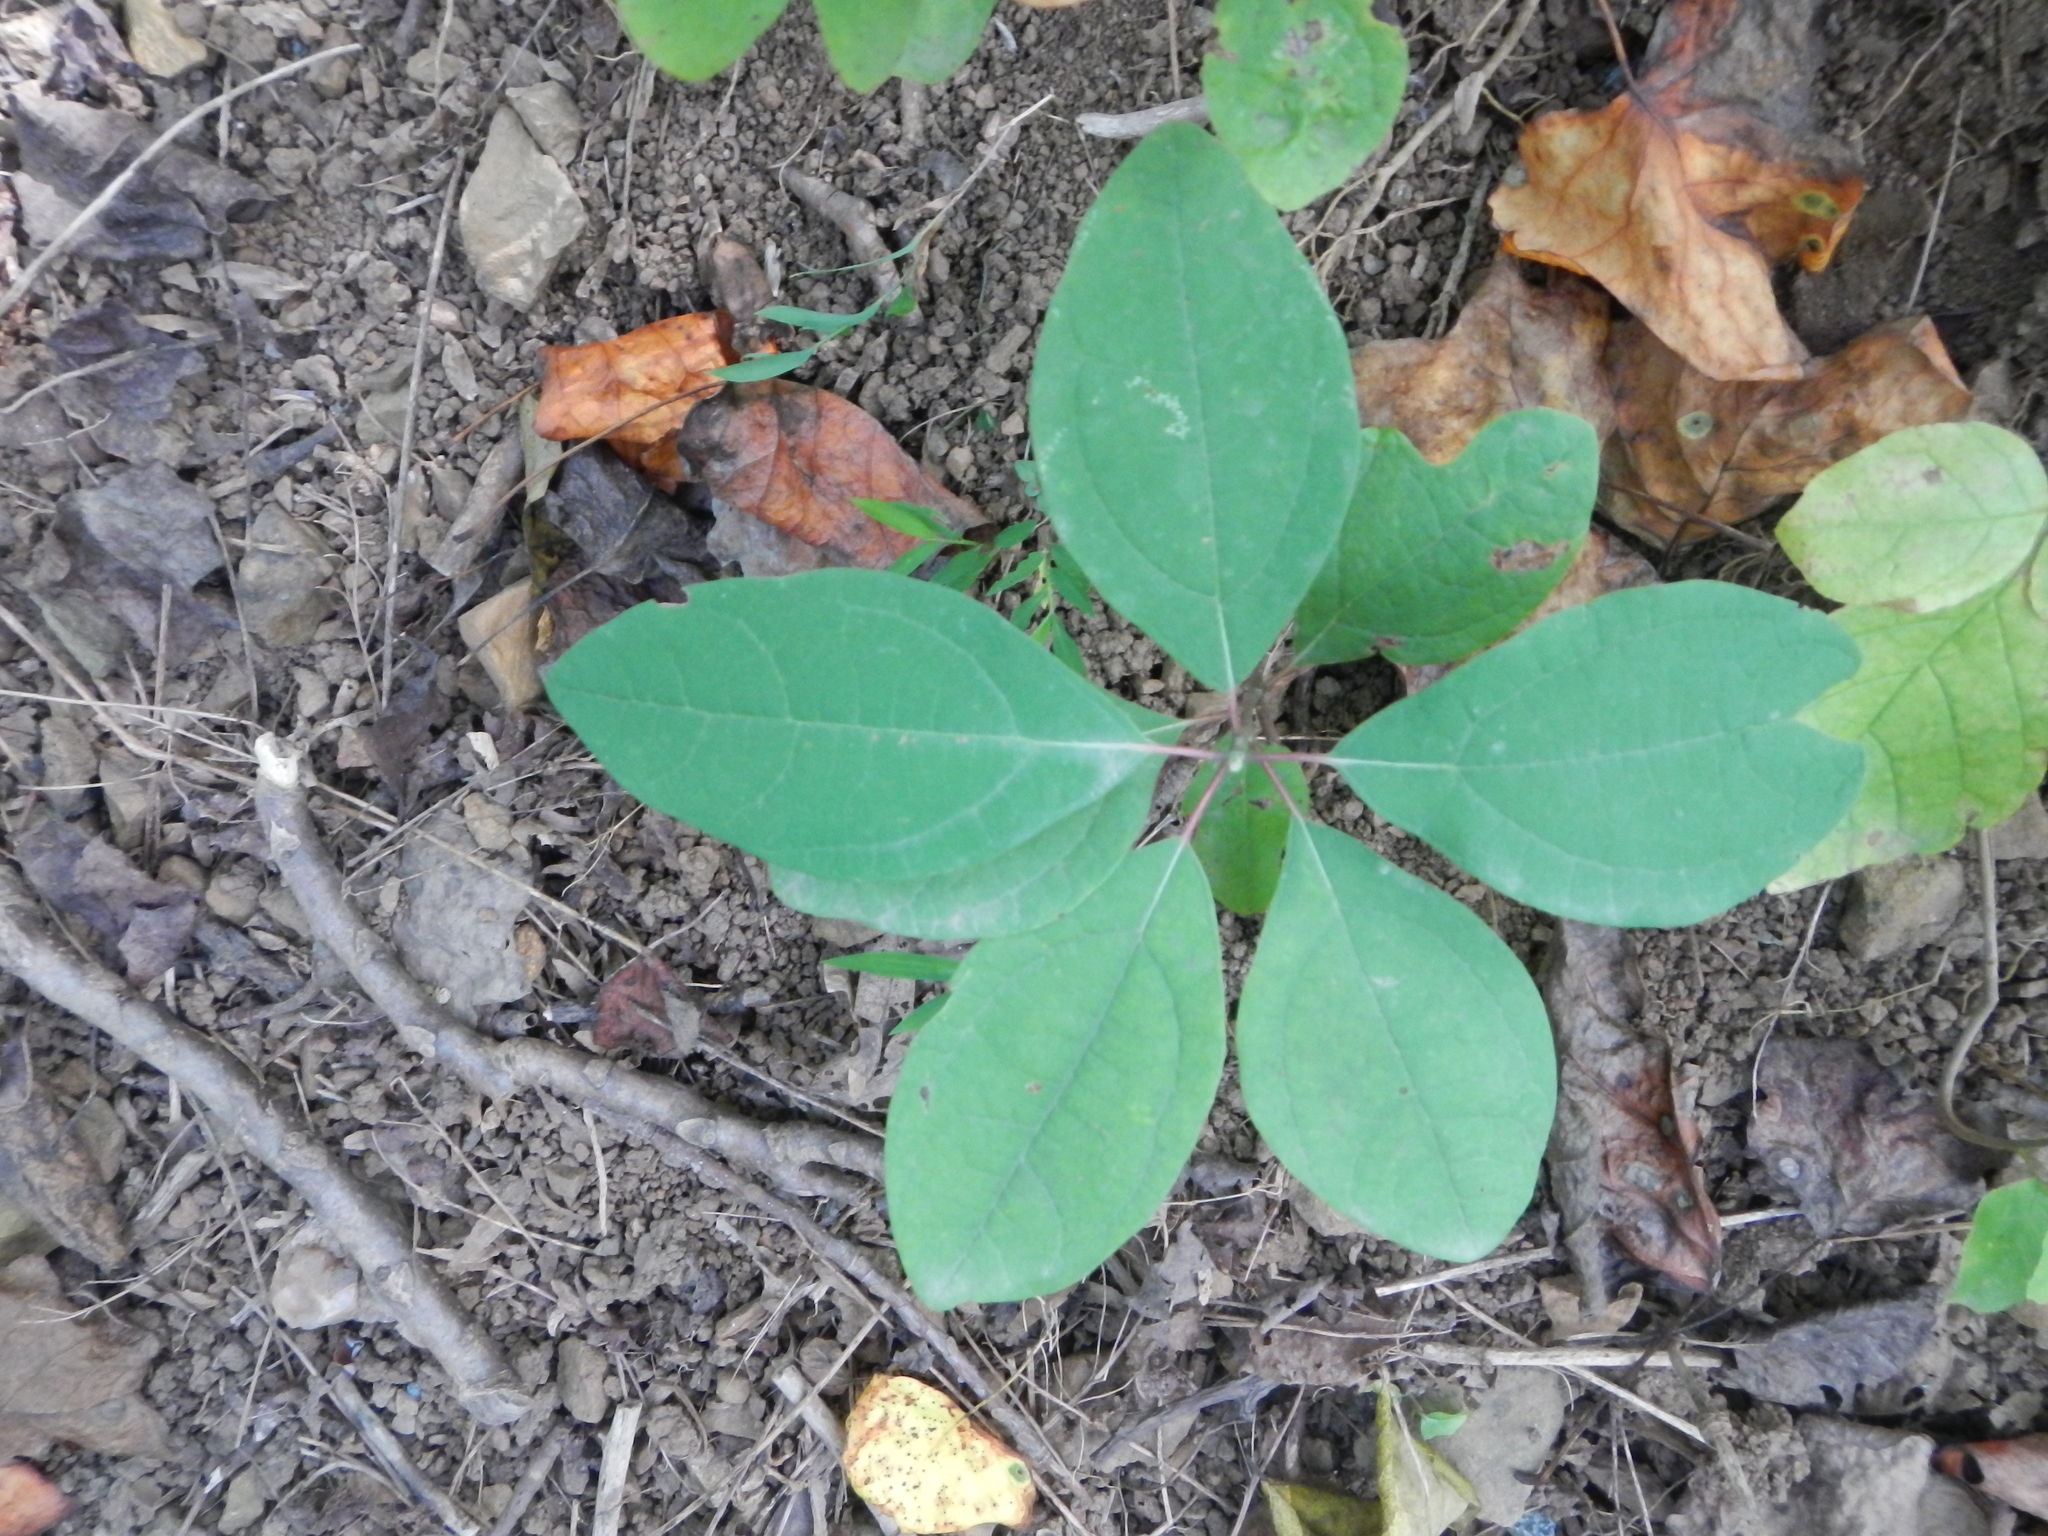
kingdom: Plantae
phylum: Tracheophyta
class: Magnoliopsida
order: Laurales
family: Lauraceae
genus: Sassafras
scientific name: Sassafras albidum
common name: Sassafras
